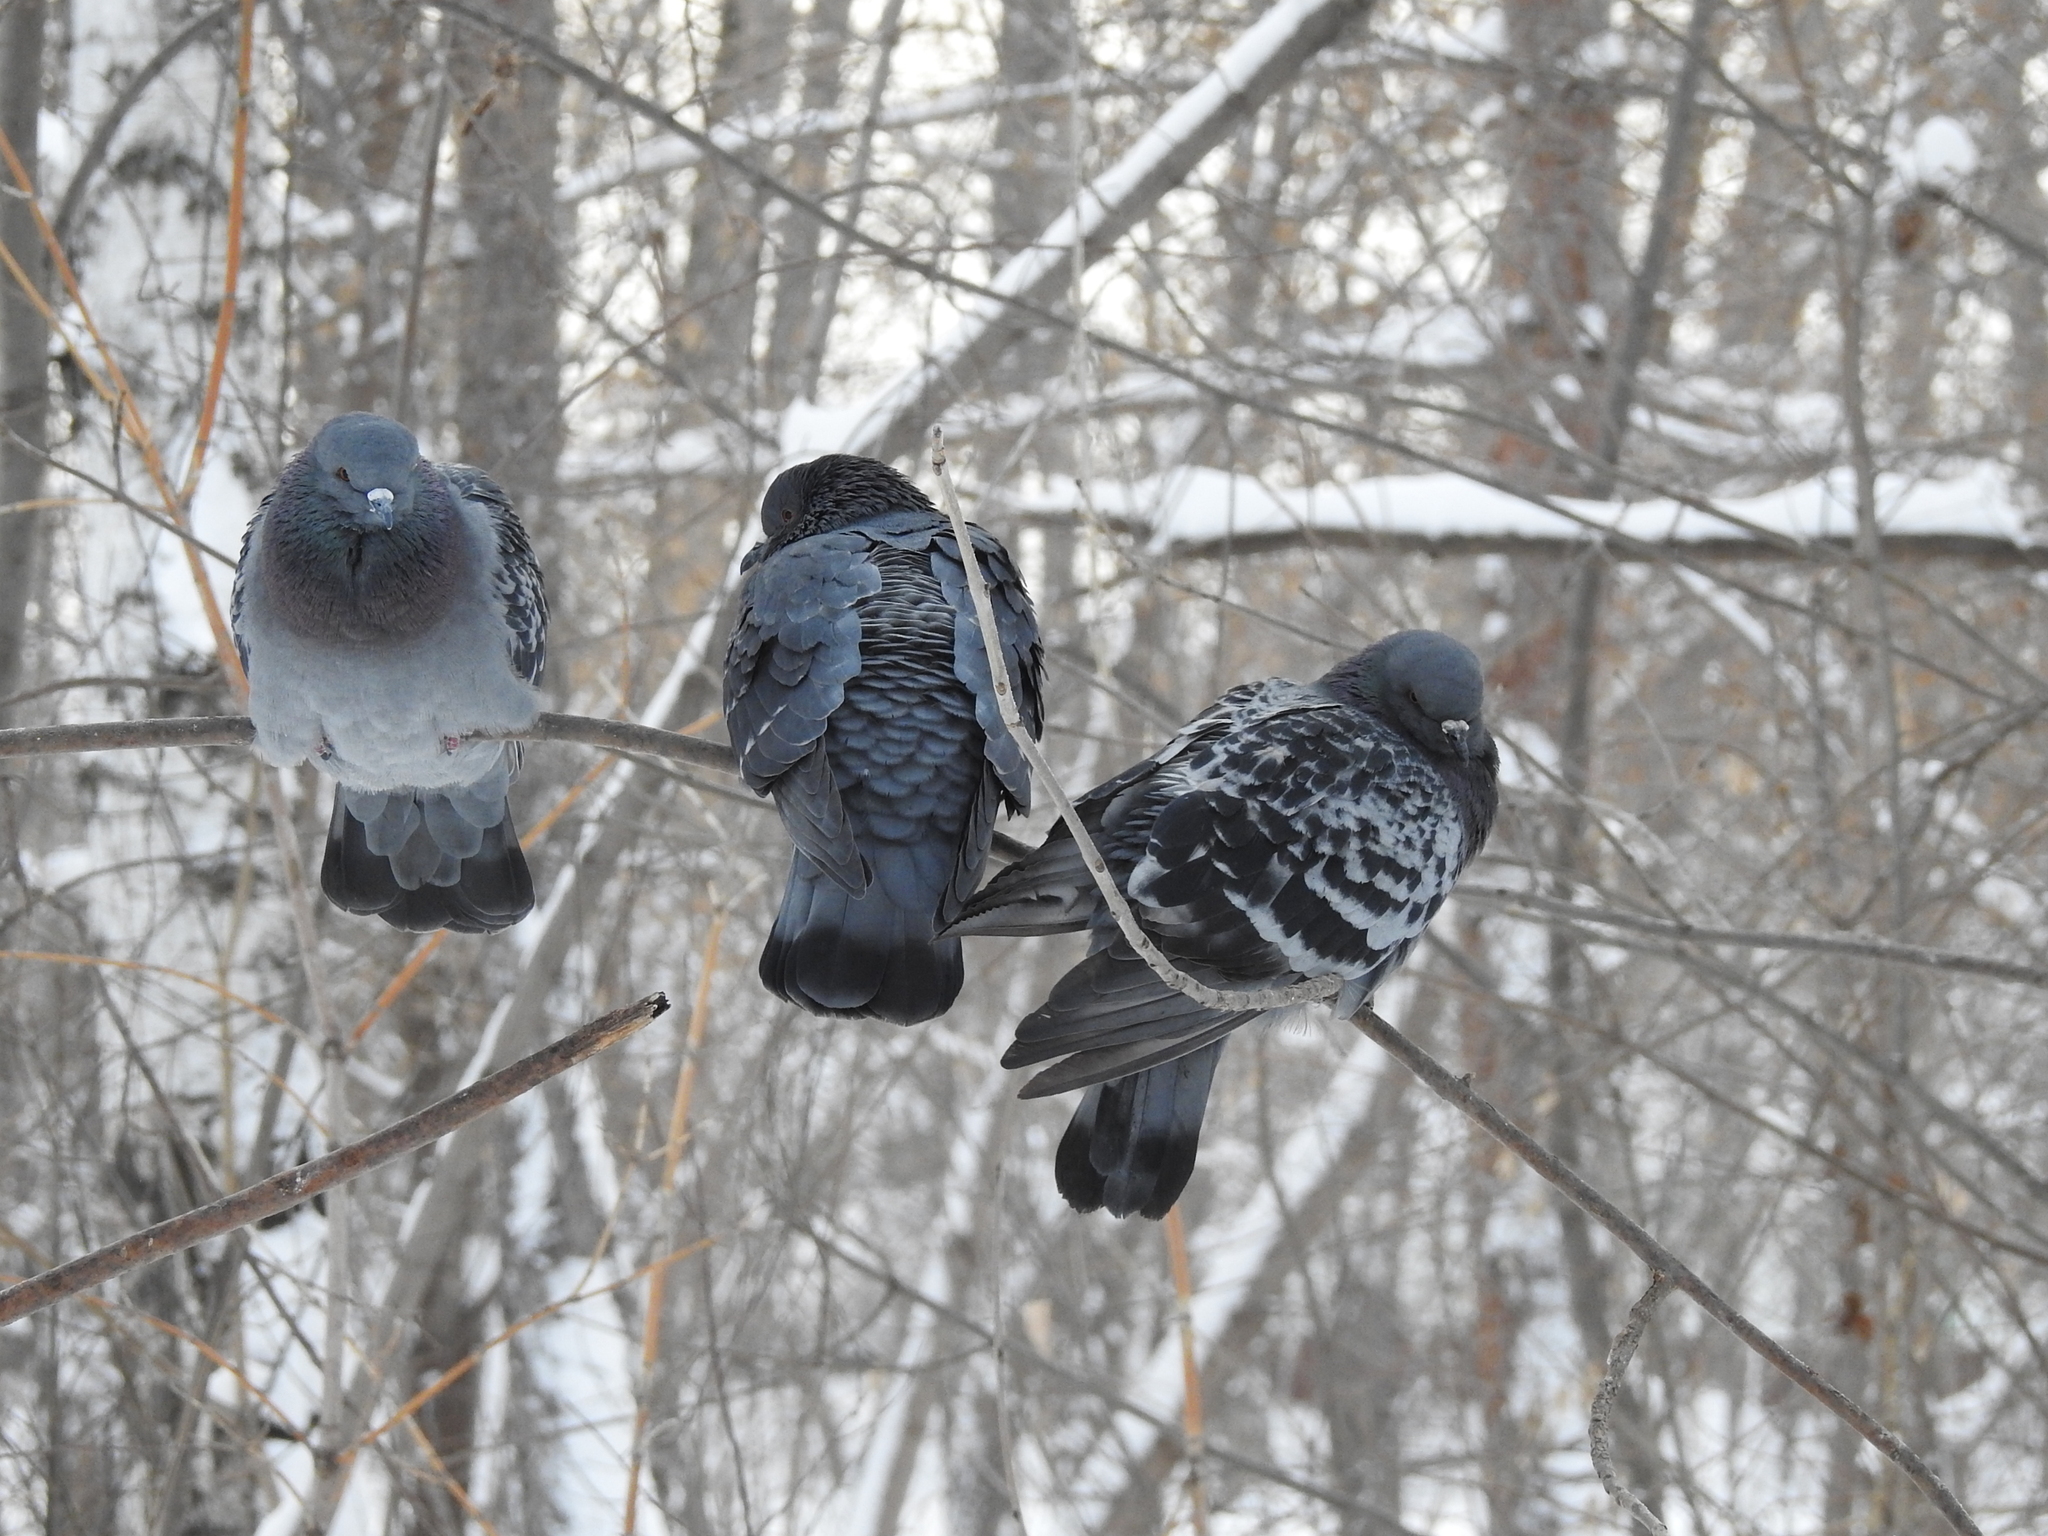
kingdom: Animalia
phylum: Chordata
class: Aves
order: Columbiformes
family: Columbidae
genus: Columba
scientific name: Columba livia
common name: Rock pigeon
